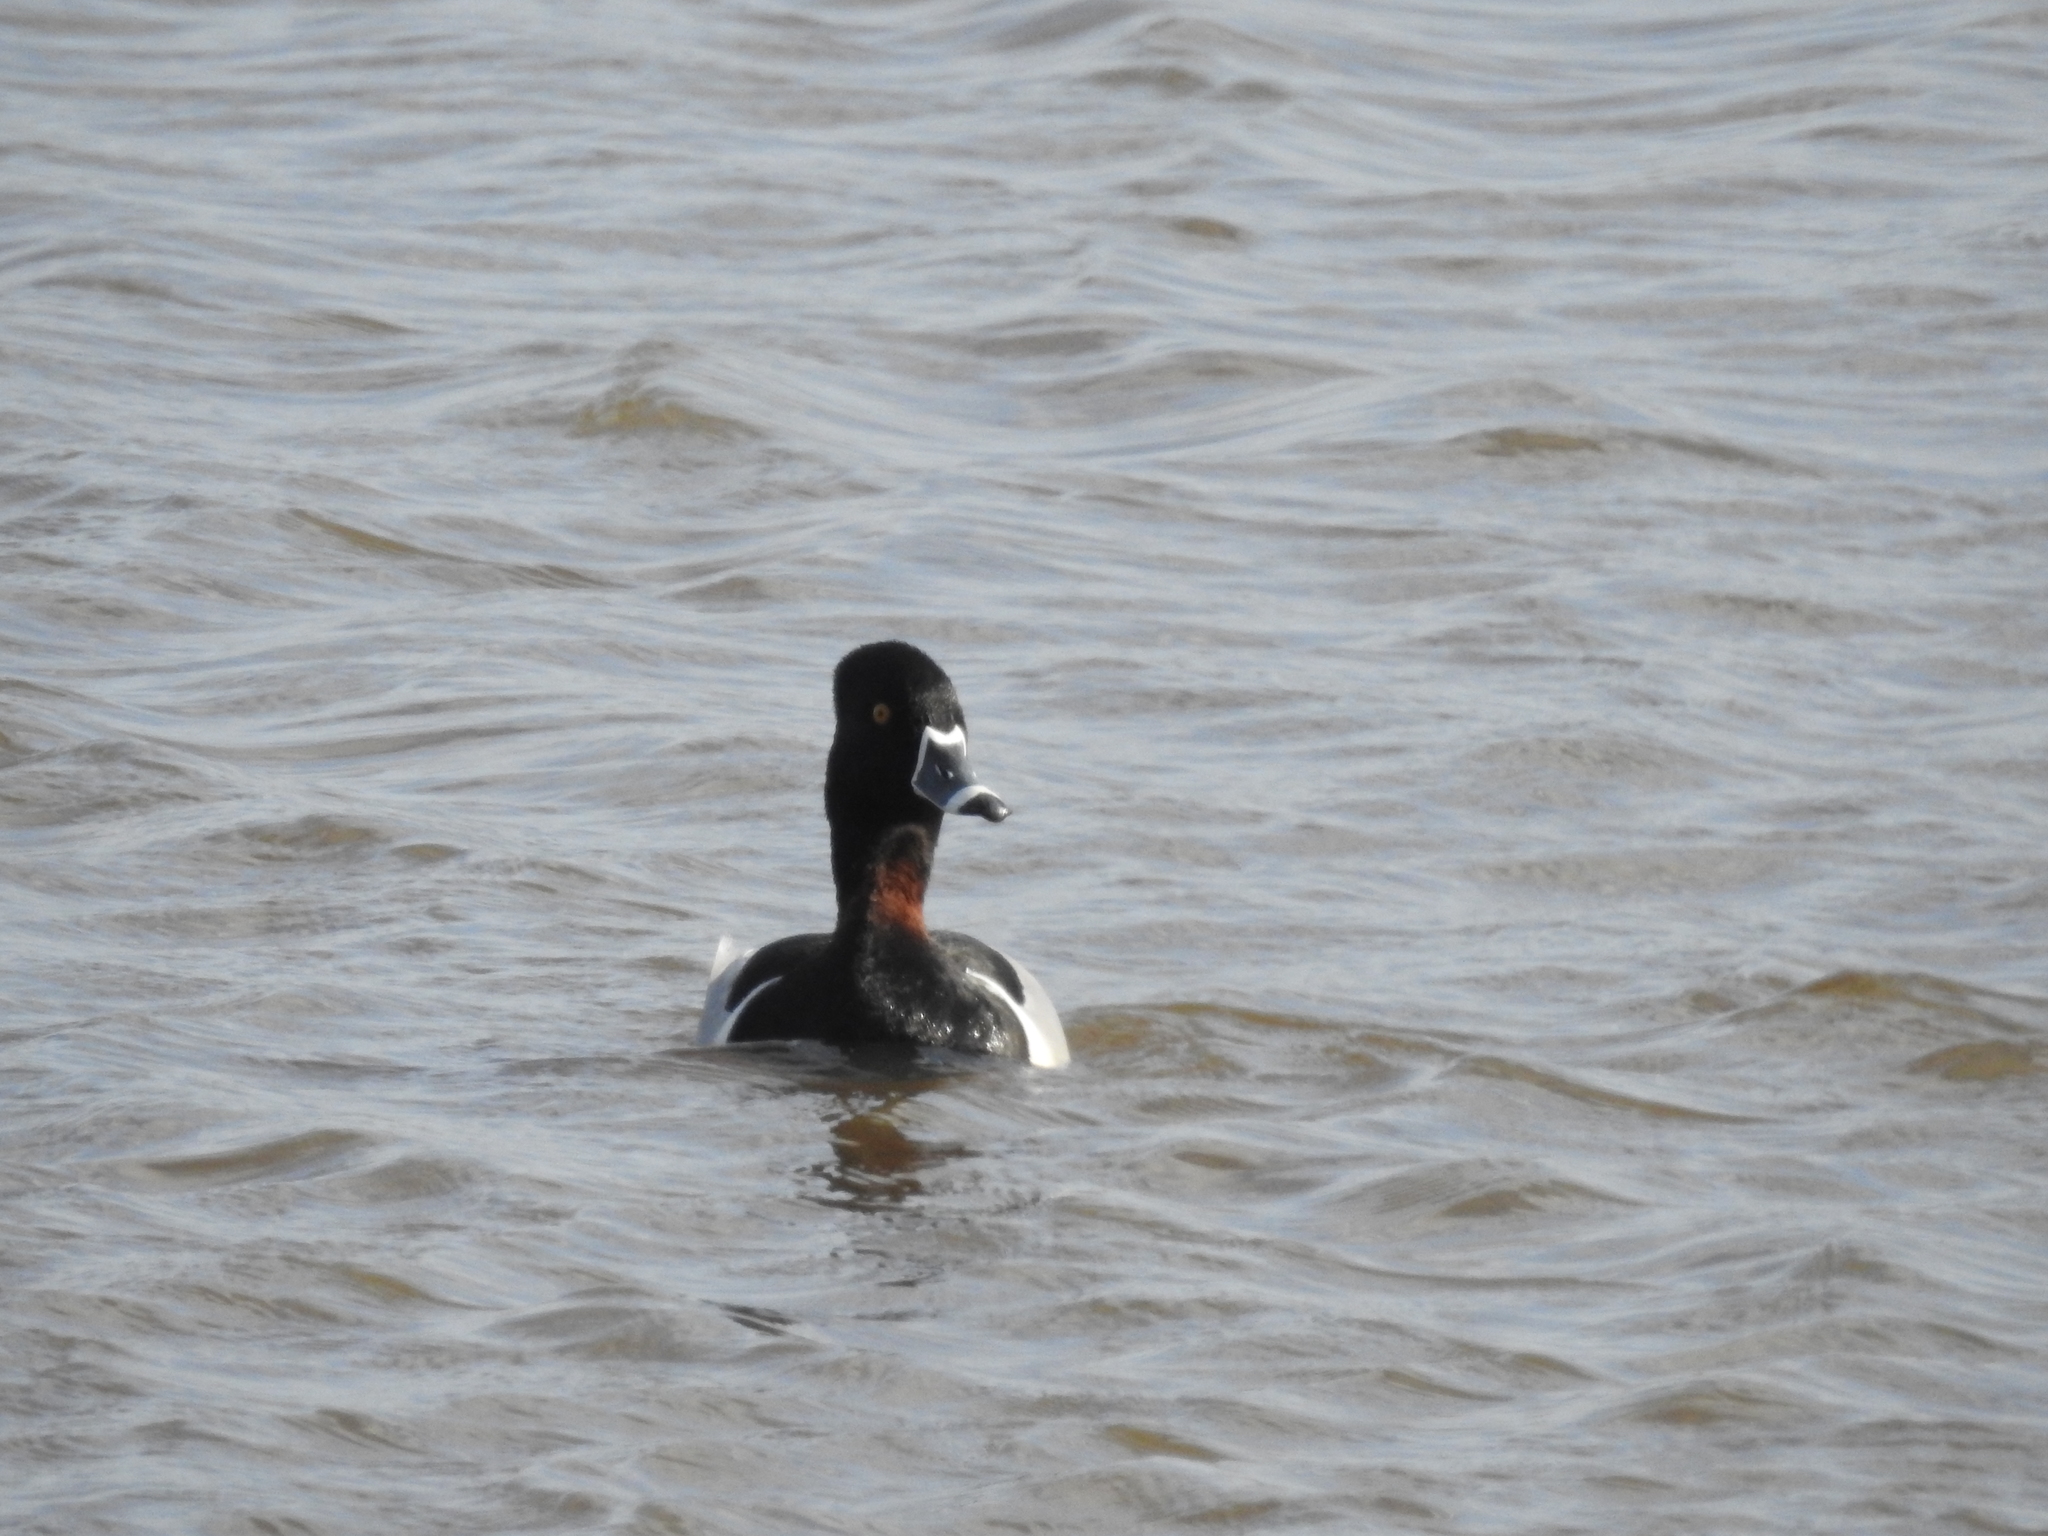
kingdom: Animalia
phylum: Chordata
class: Aves
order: Anseriformes
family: Anatidae
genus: Aythya
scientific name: Aythya collaris
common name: Ring-necked duck
